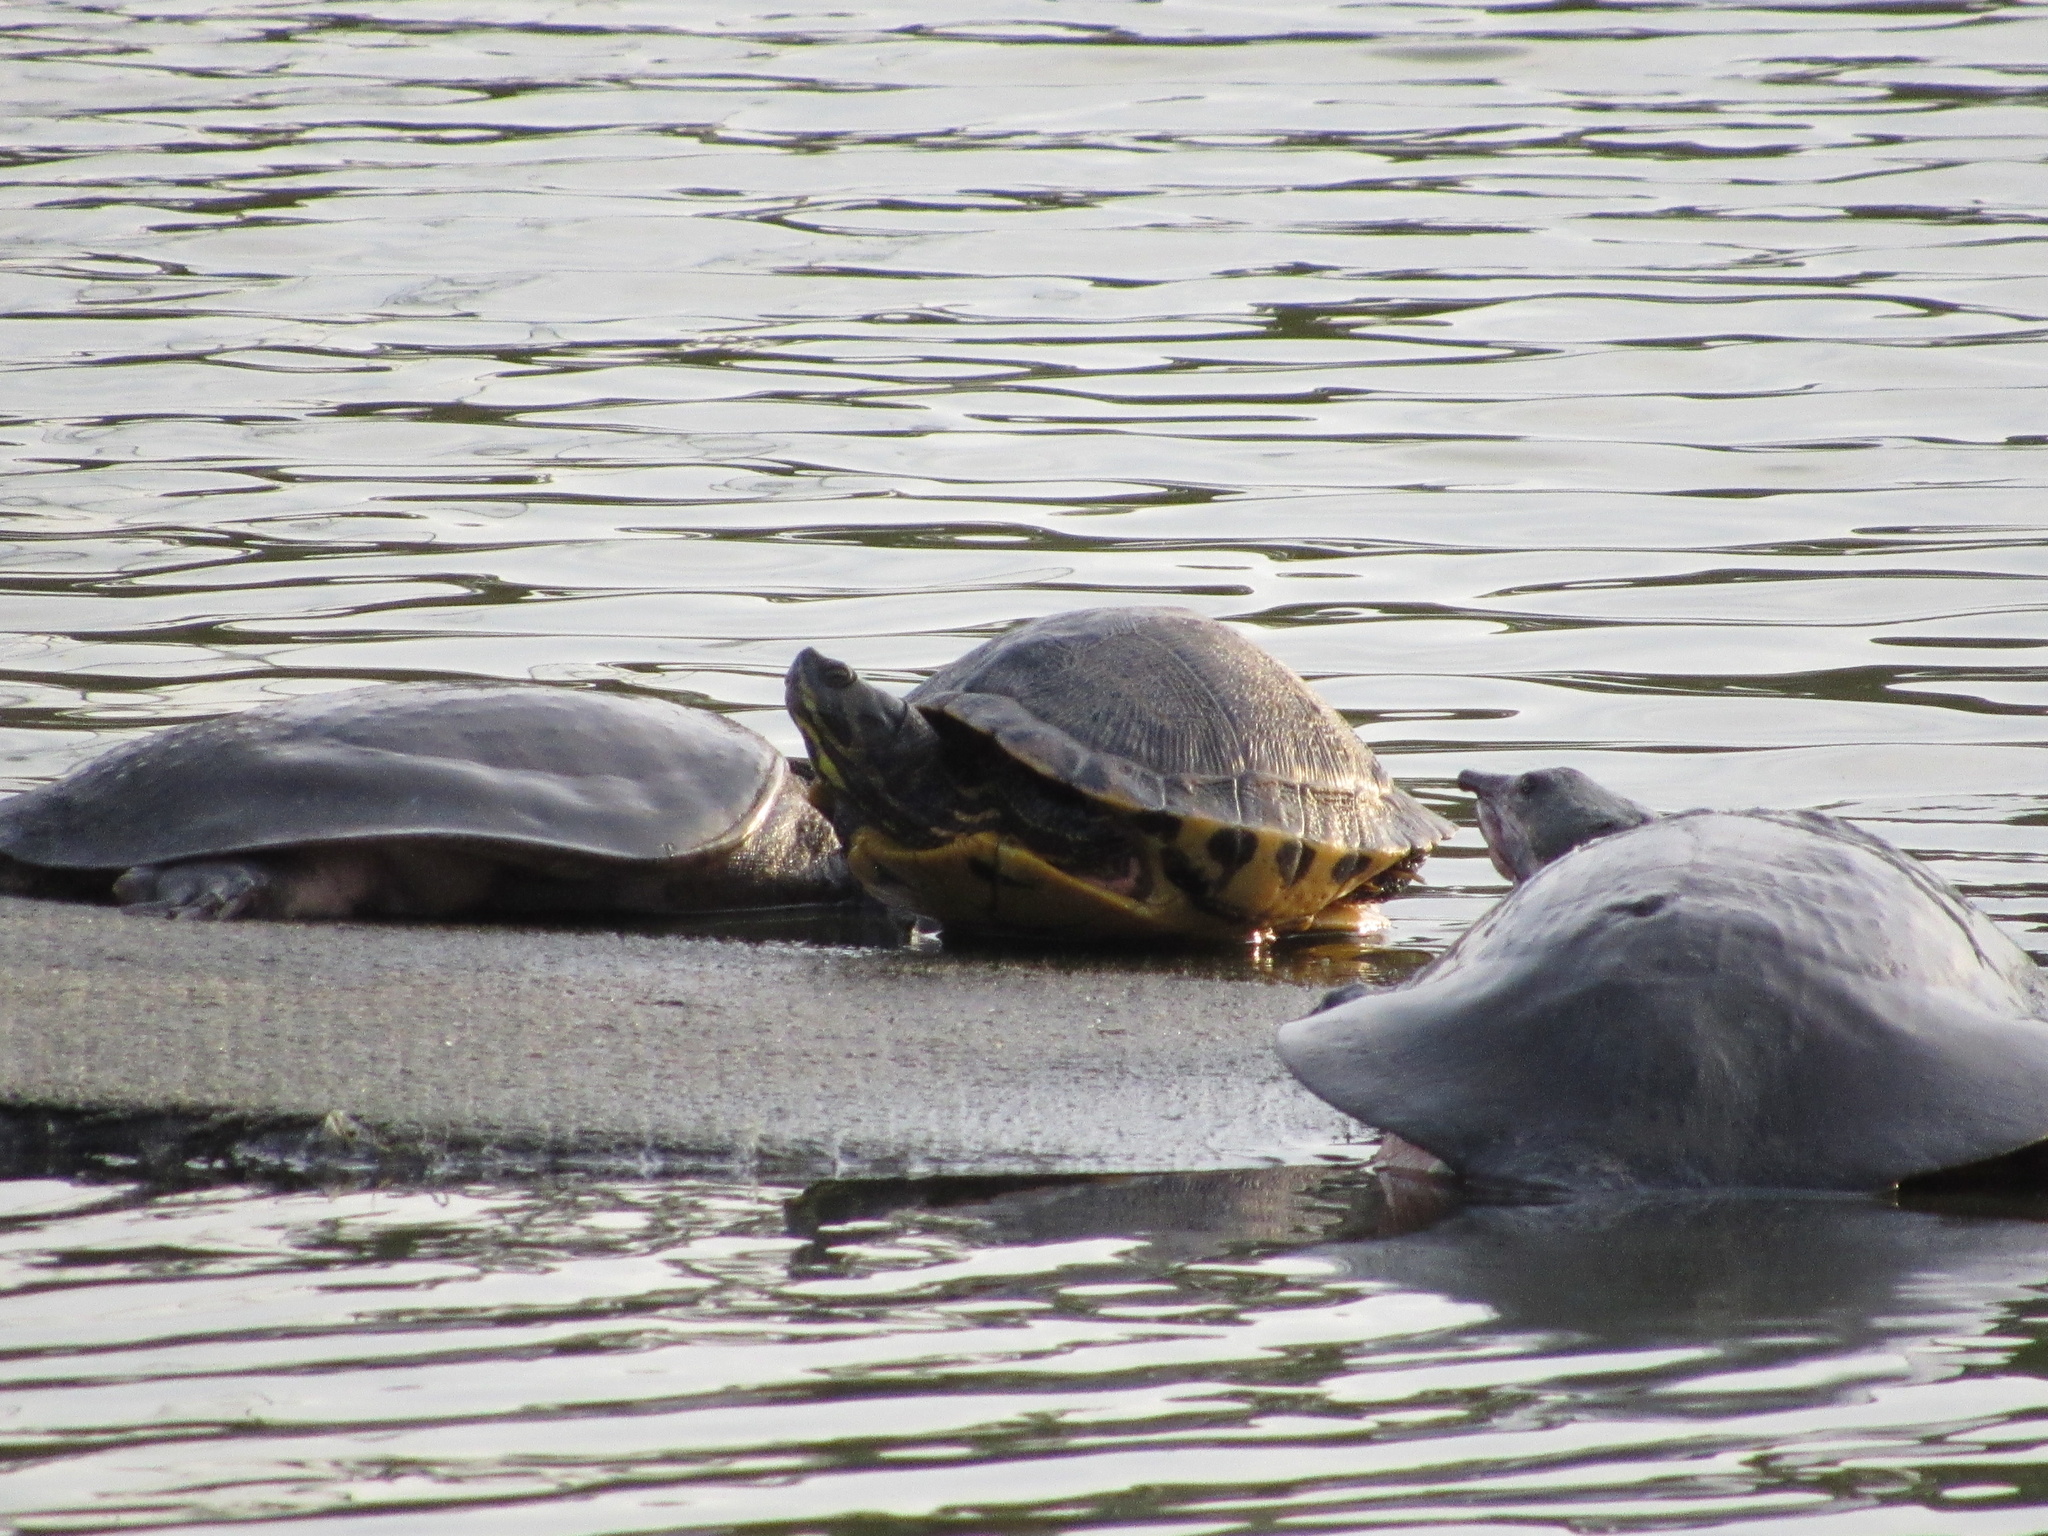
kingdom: Animalia
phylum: Chordata
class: Testudines
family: Trionychidae
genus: Apalone
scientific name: Apalone ferox
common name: Florida softshell turtle
